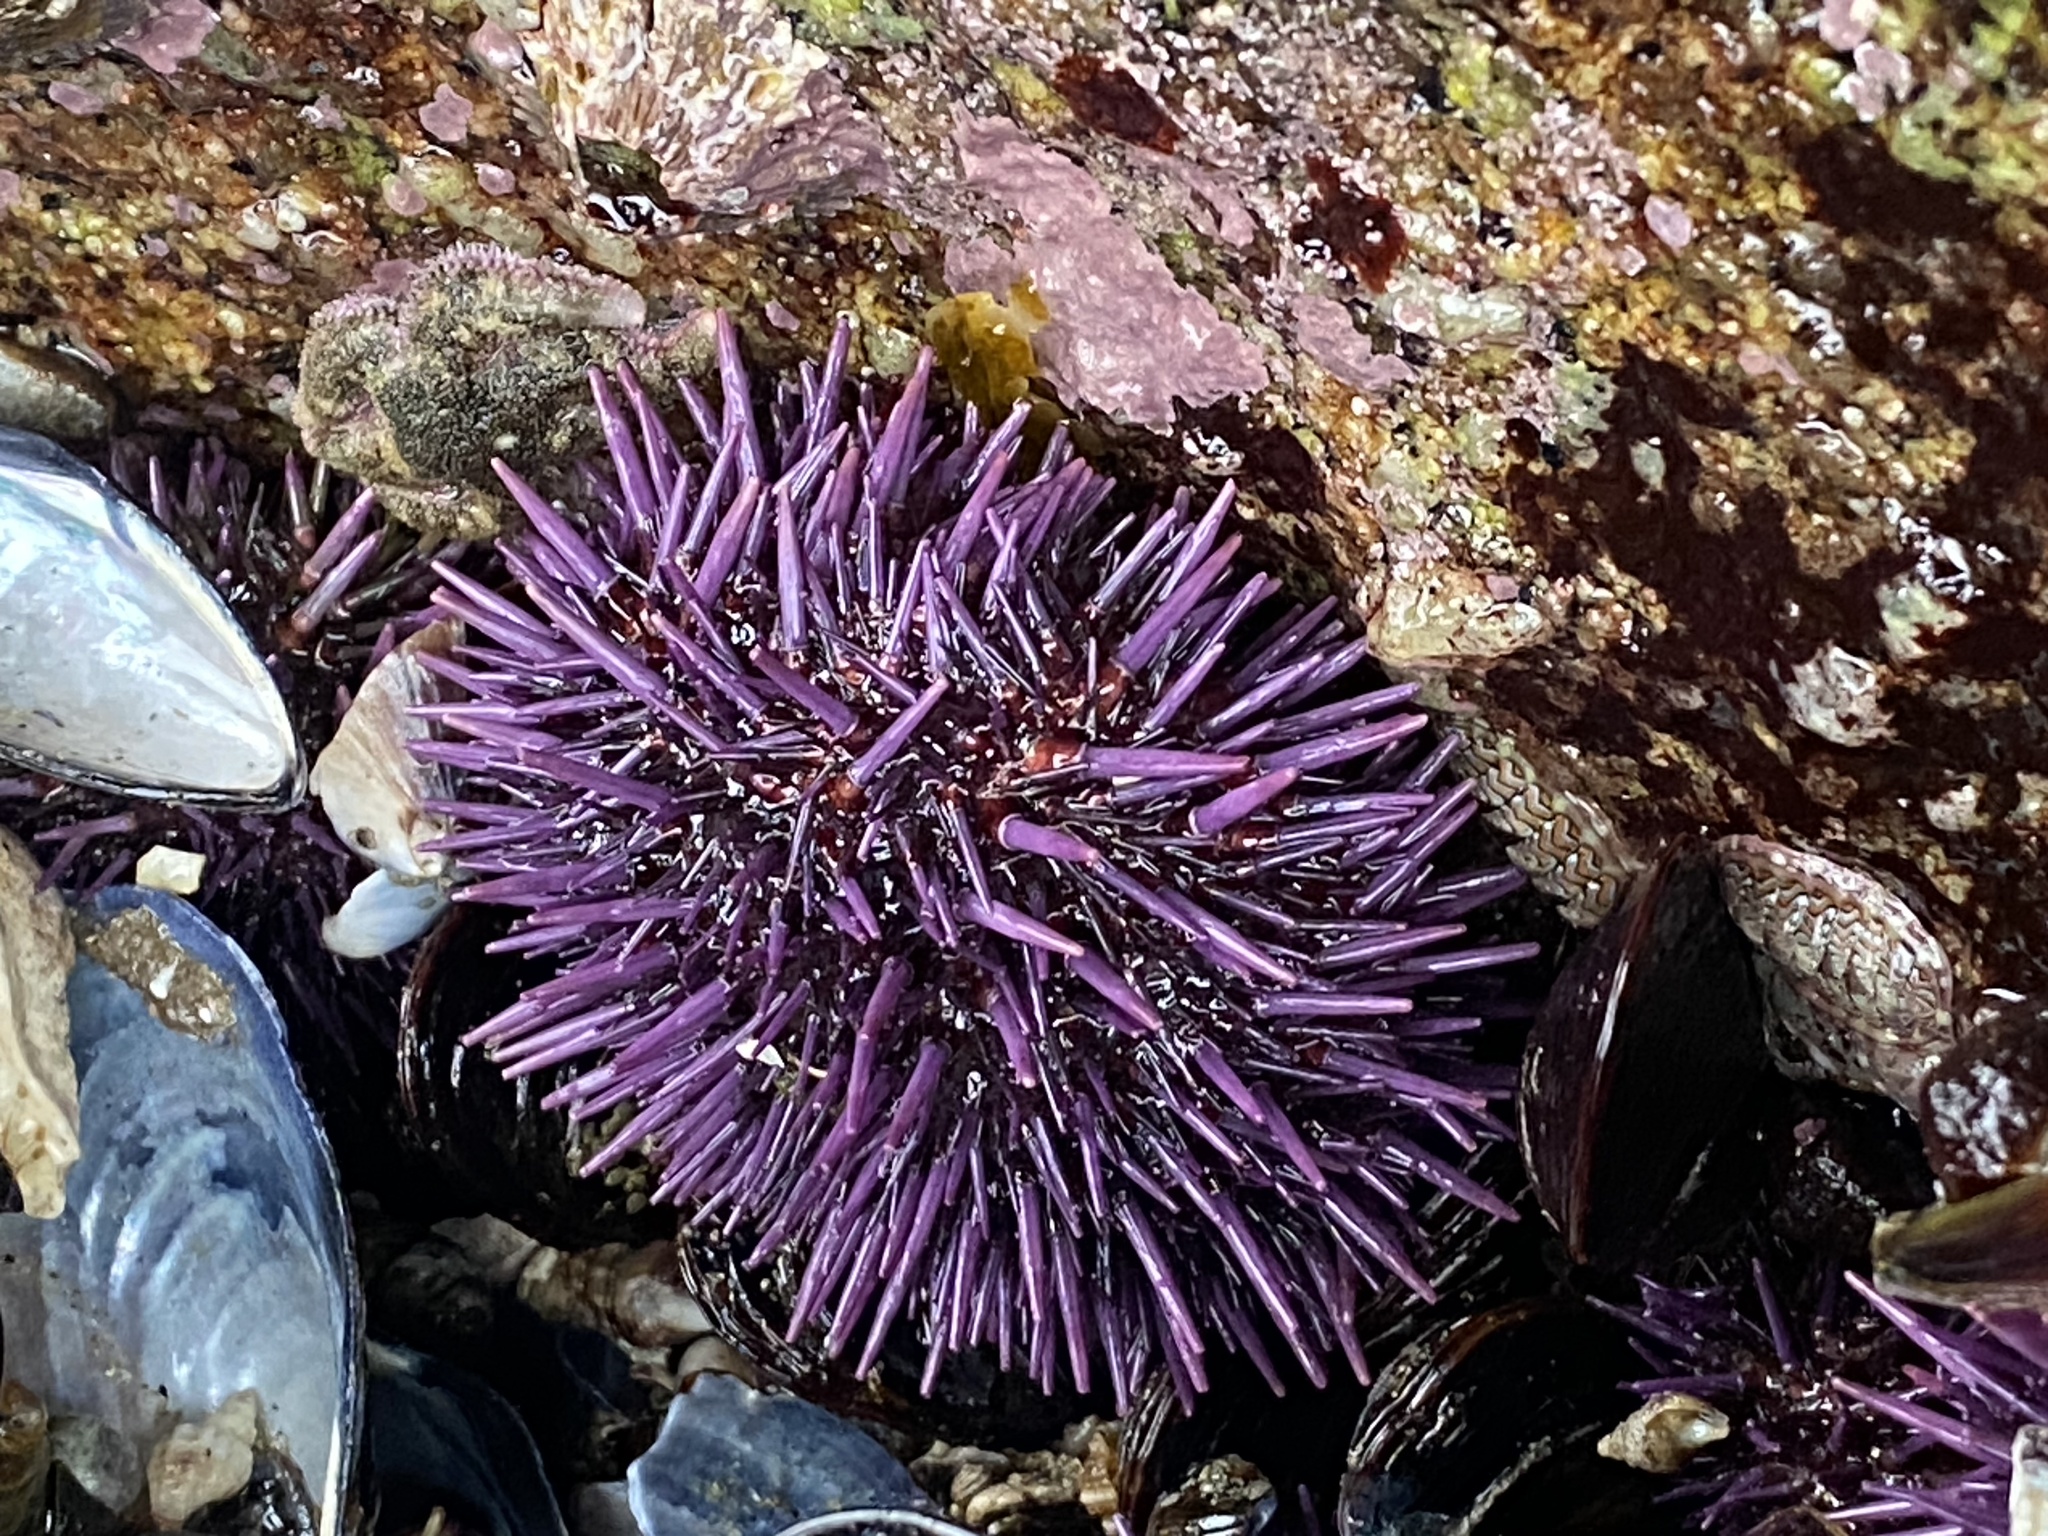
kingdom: Animalia
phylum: Echinodermata
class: Echinoidea
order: Camarodonta
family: Strongylocentrotidae
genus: Strongylocentrotus
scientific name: Strongylocentrotus purpuratus
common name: Purple sea urchin
